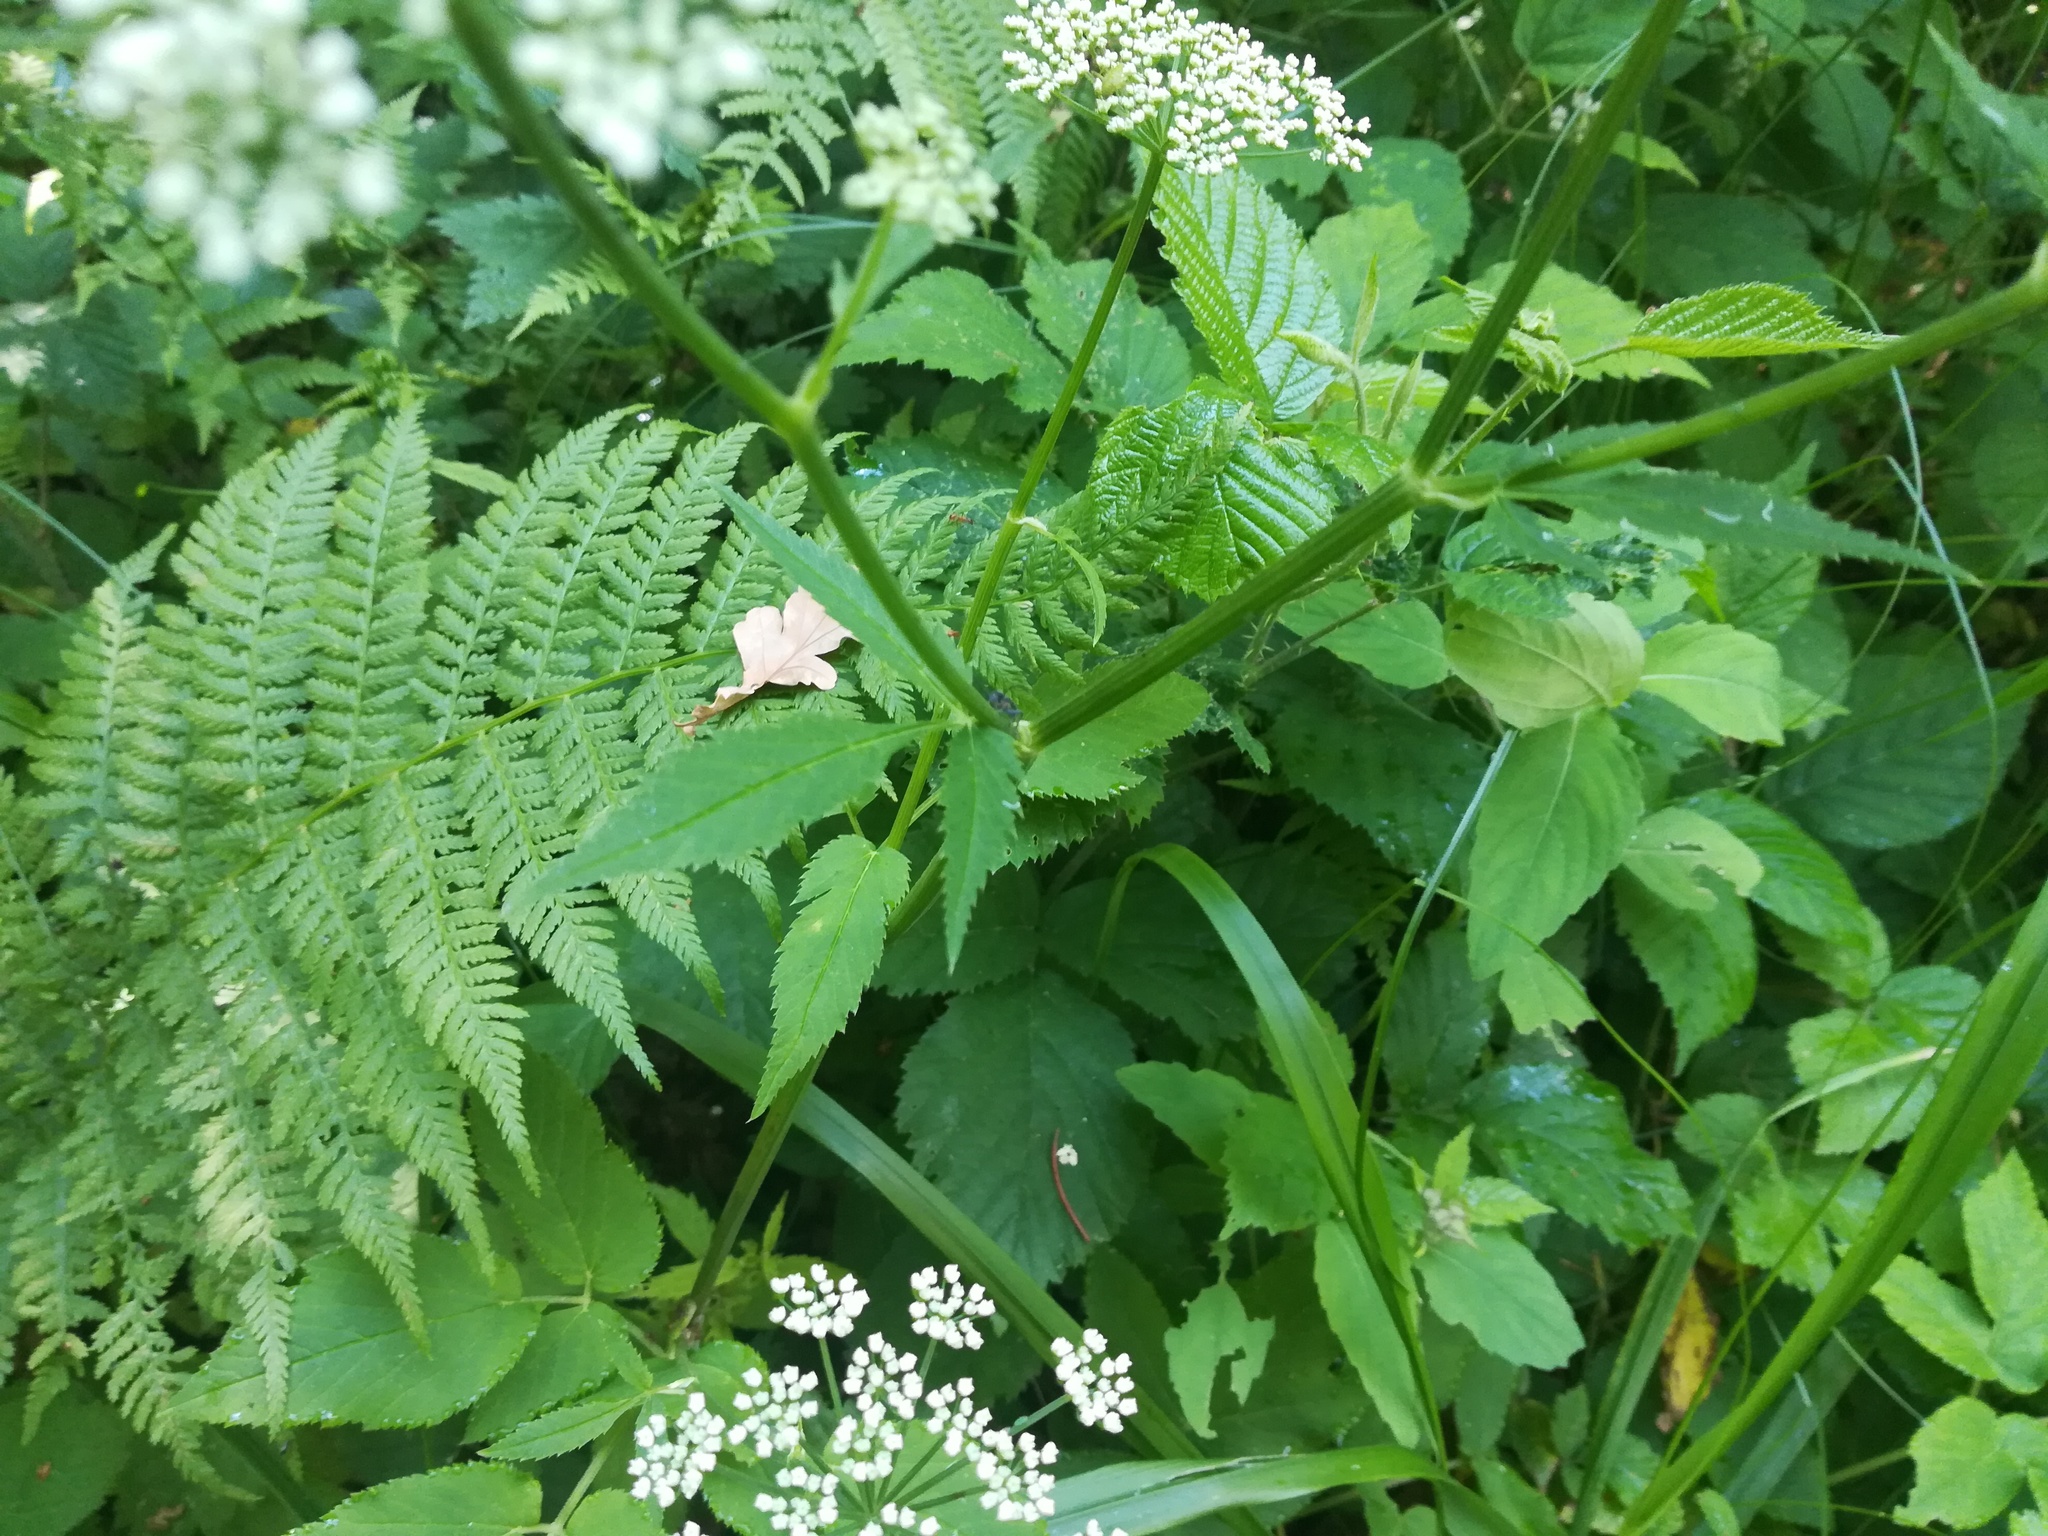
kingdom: Plantae
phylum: Tracheophyta
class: Magnoliopsida
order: Apiales
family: Apiaceae
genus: Aegopodium
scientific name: Aegopodium podagraria
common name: Ground-elder
